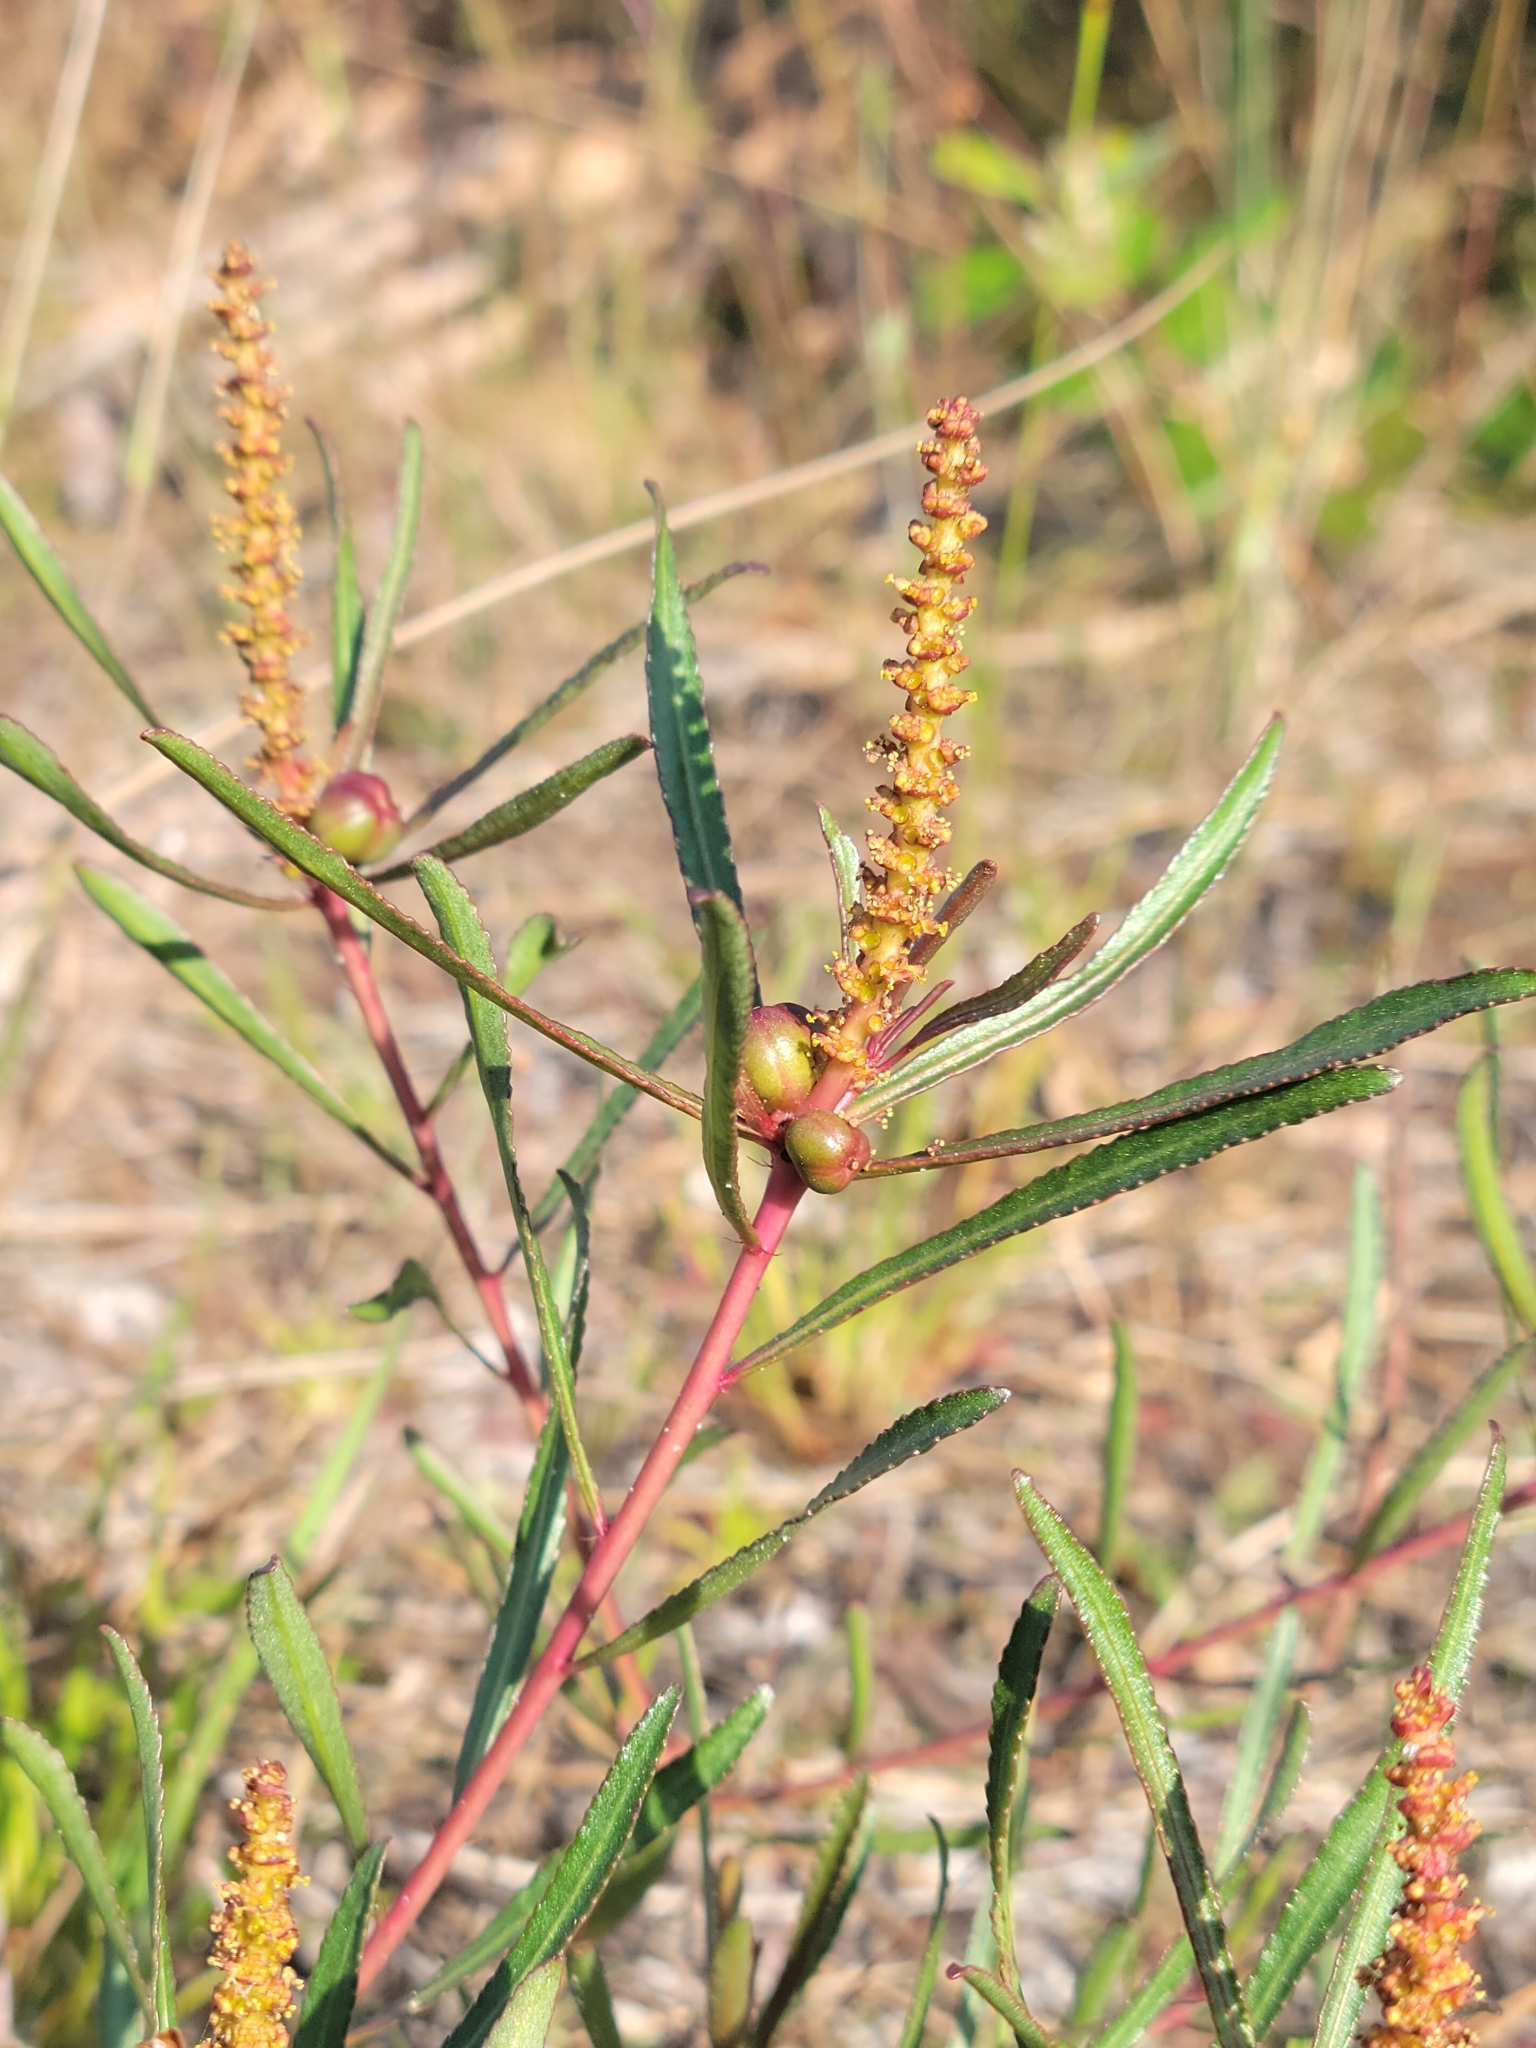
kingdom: Plantae
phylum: Tracheophyta
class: Magnoliopsida
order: Malpighiales
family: Euphorbiaceae
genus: Stillingia
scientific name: Stillingia sylvatica
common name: Queen's-delight
